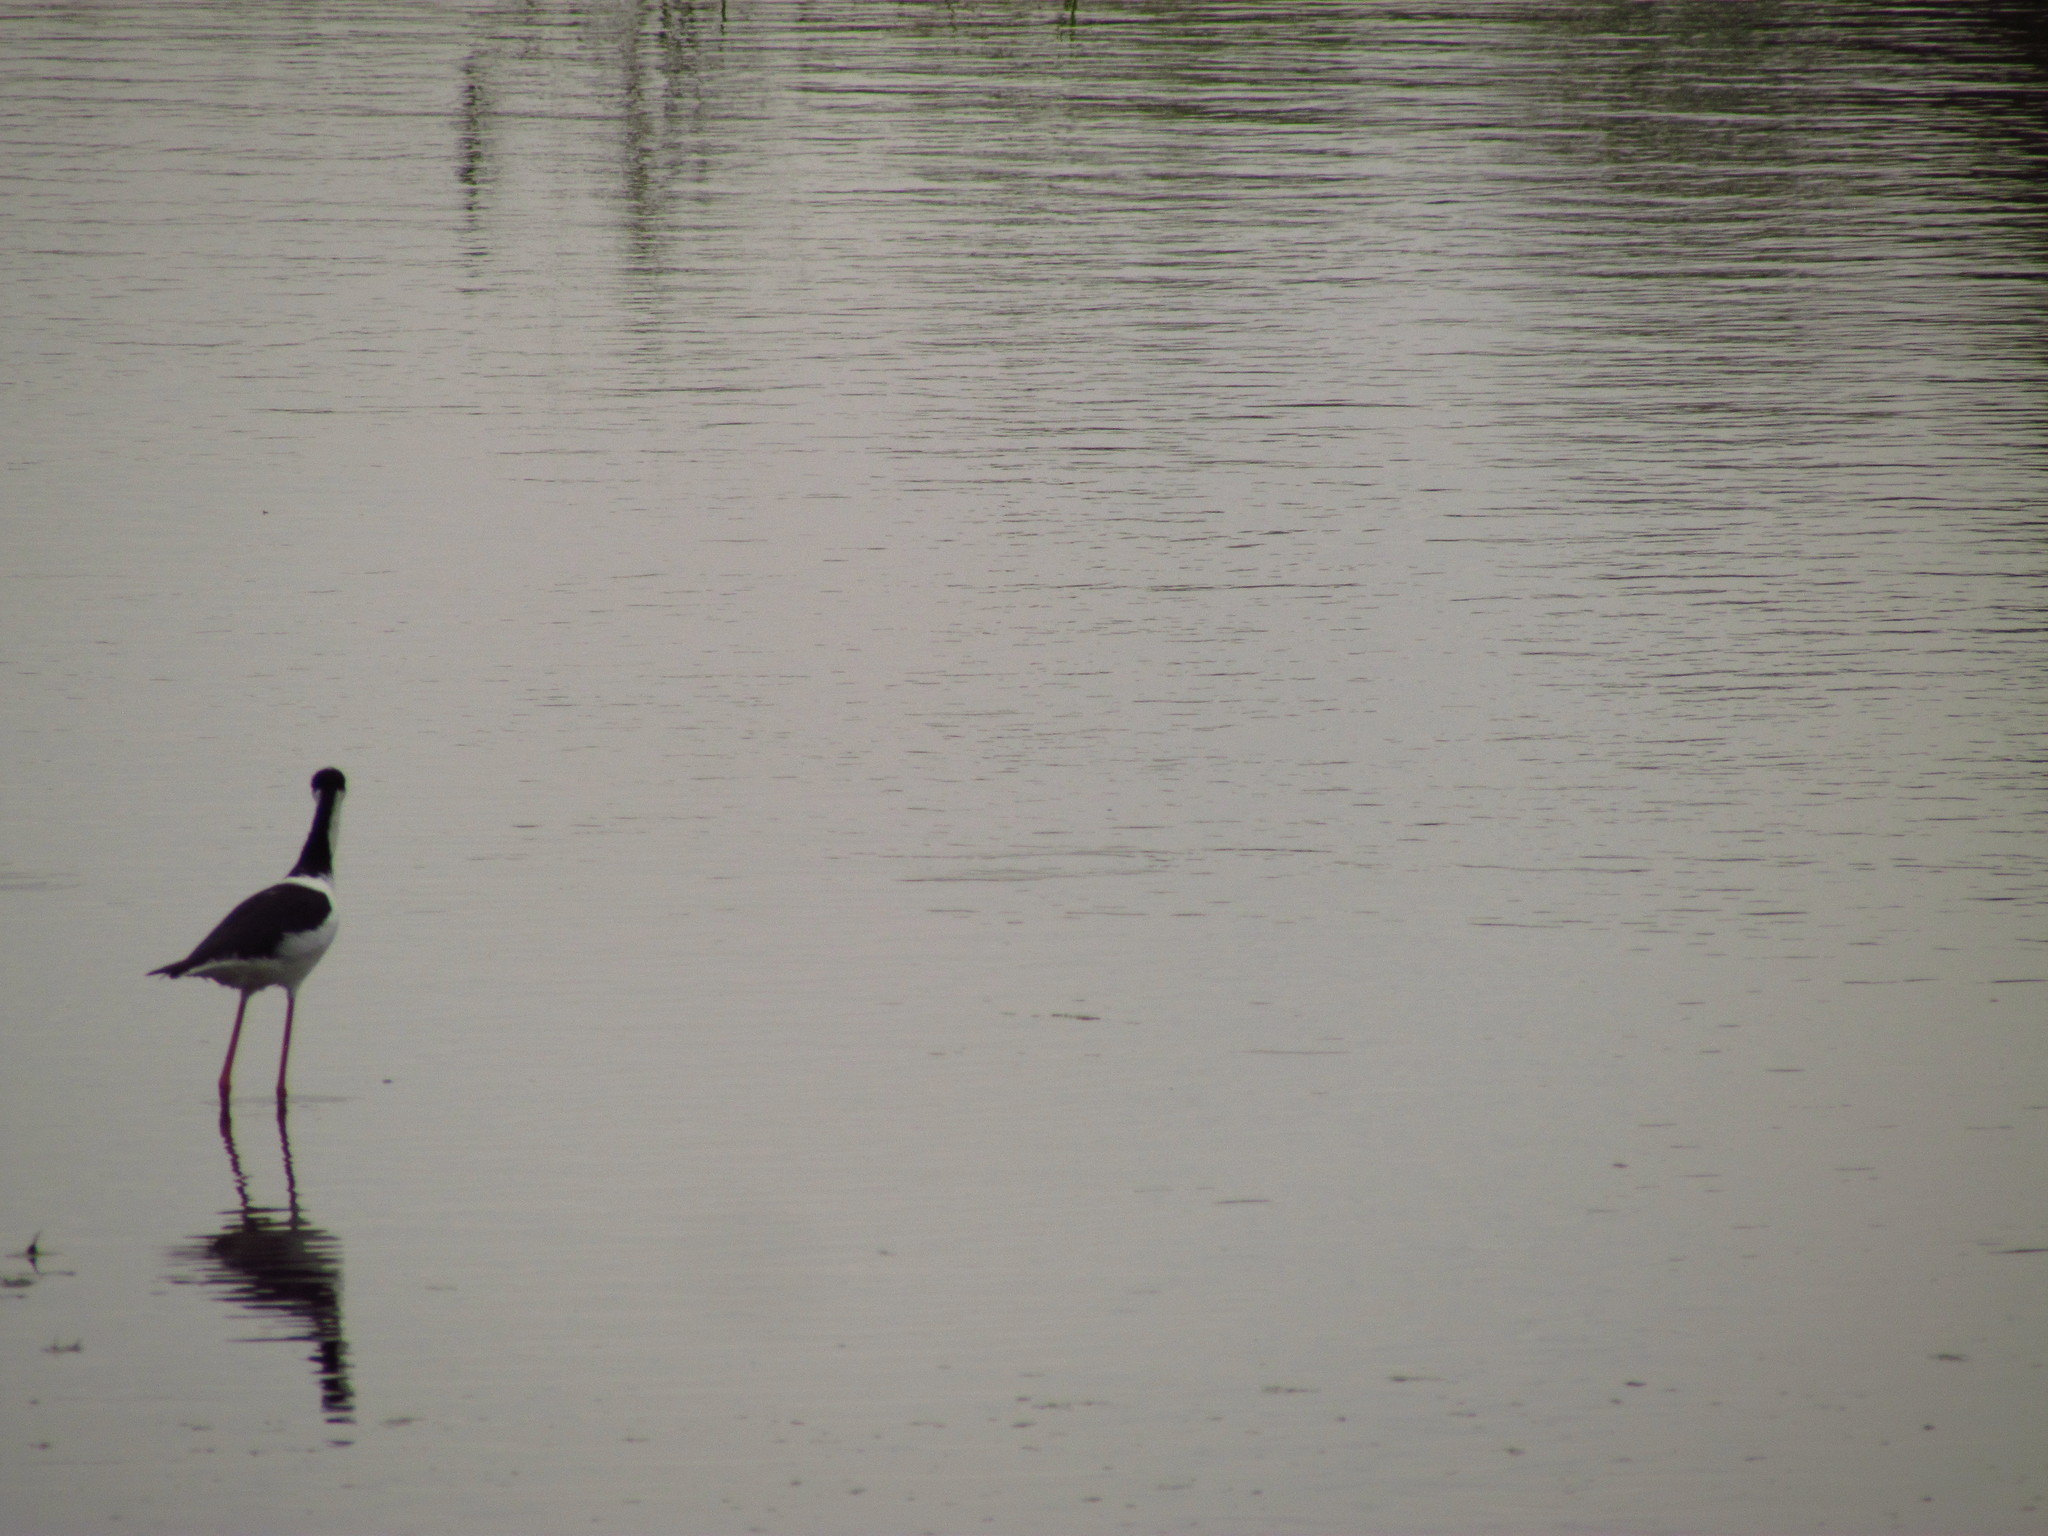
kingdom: Animalia
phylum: Chordata
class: Aves
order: Charadriiformes
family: Recurvirostridae
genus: Himantopus
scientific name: Himantopus mexicanus
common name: Black-necked stilt
